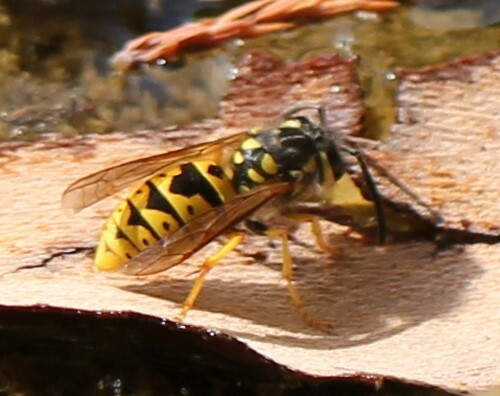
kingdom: Animalia
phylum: Arthropoda
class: Insecta
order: Hymenoptera
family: Vespidae
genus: Vespula
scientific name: Vespula germanica
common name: German wasp
